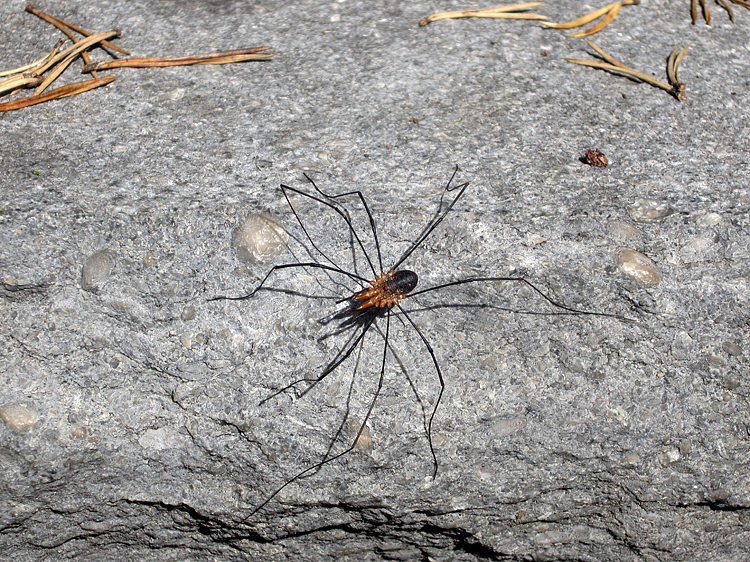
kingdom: Animalia
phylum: Arthropoda
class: Arachnida
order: Opiliones
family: Phalangiidae
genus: Phalangium
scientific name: Phalangium opilio
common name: Daddy longleg
